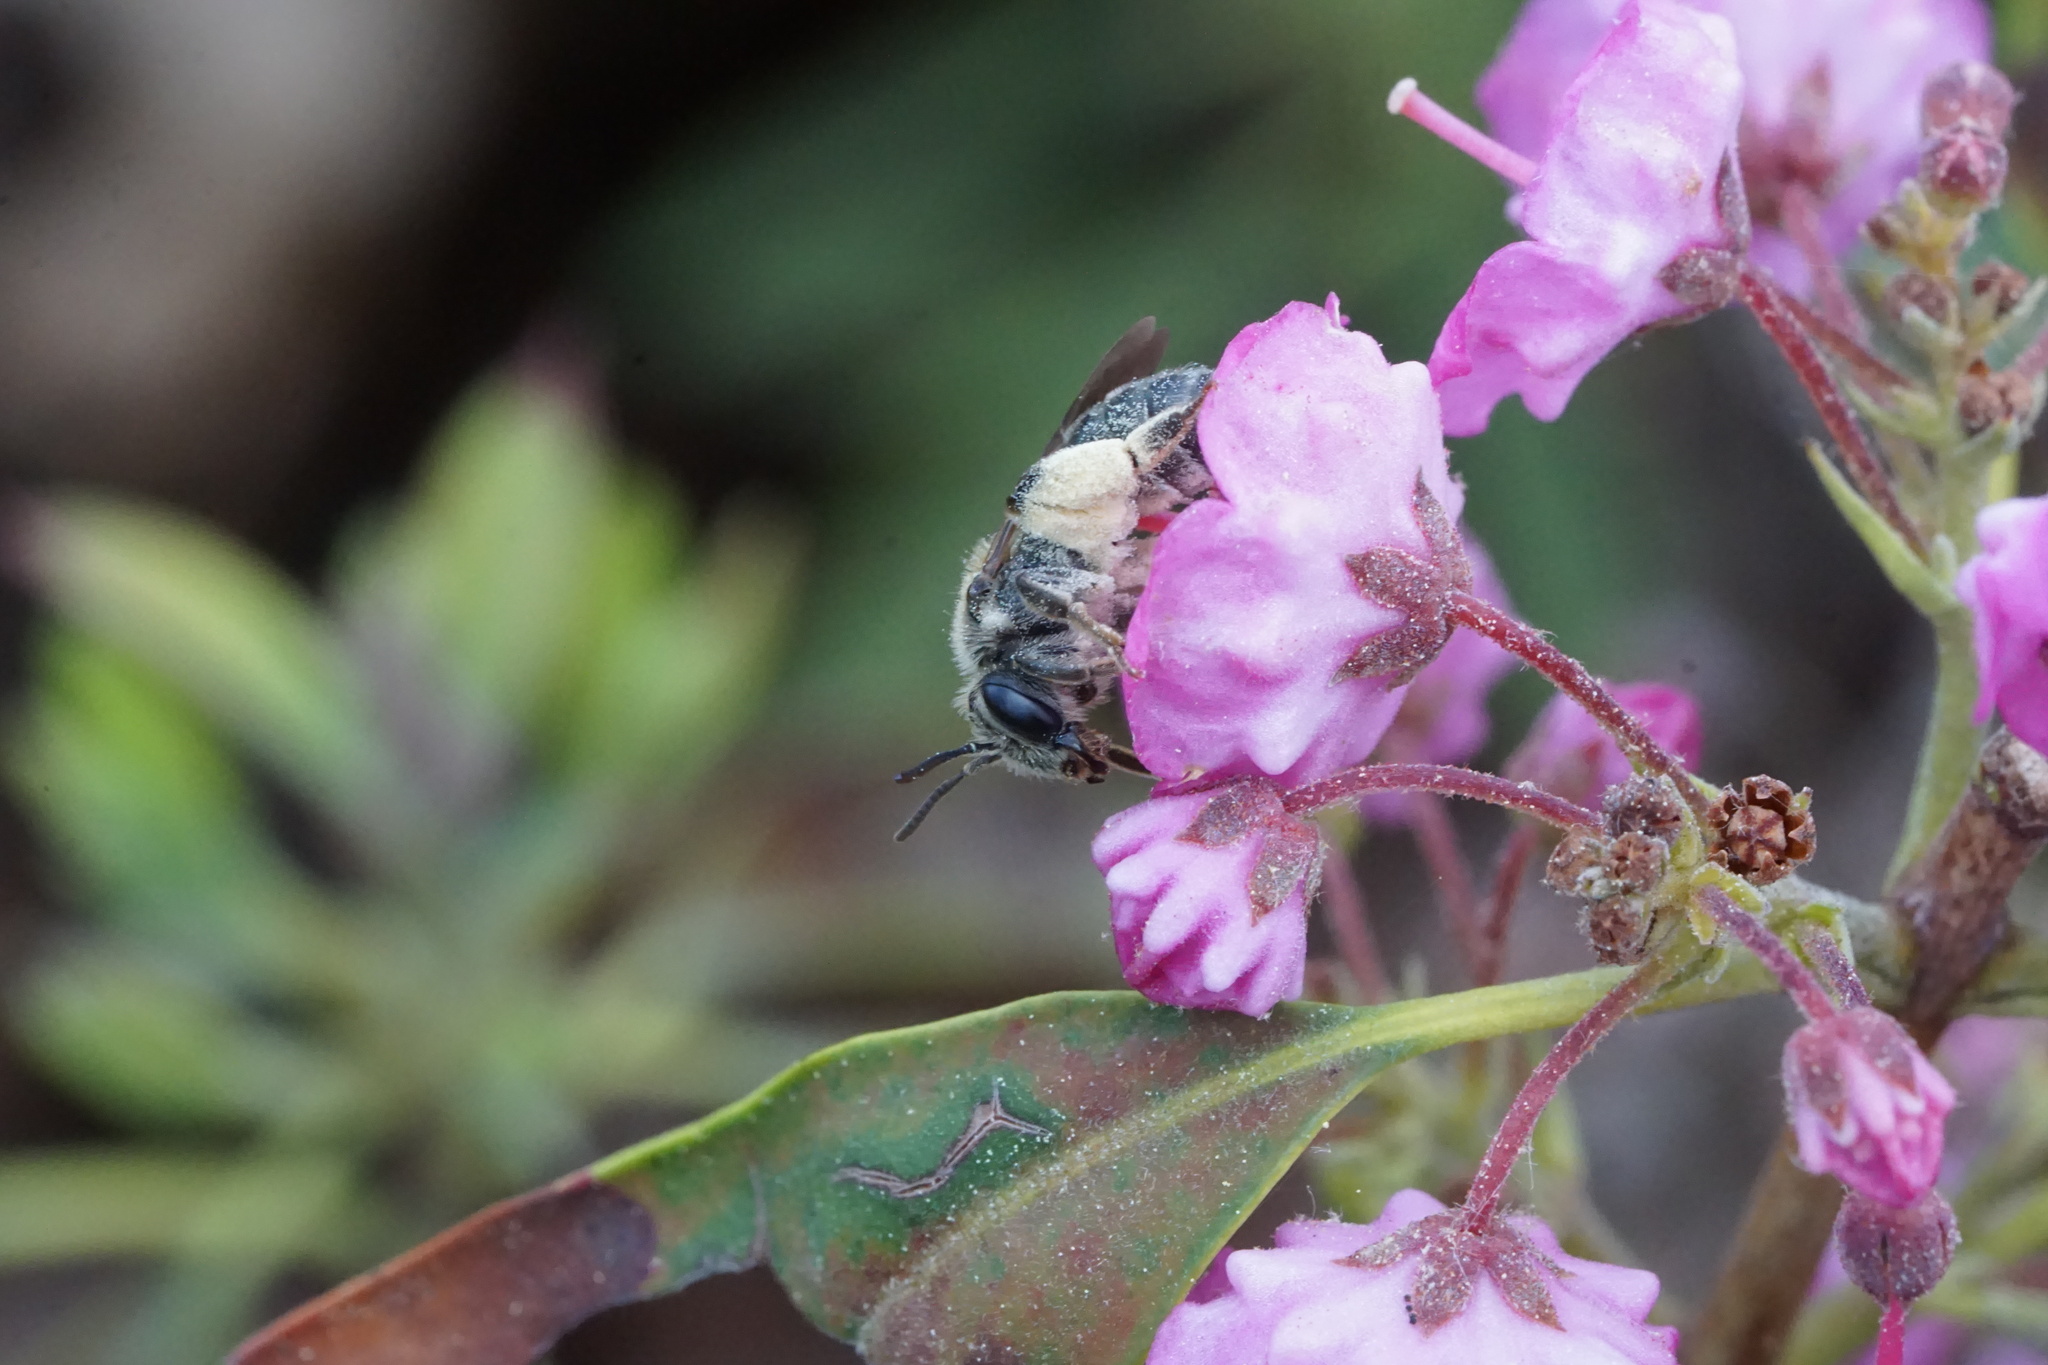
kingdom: Animalia
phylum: Arthropoda
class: Insecta
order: Hymenoptera
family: Andrenidae
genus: Andrena
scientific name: Andrena kalmiae
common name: Kalmia miner bee
